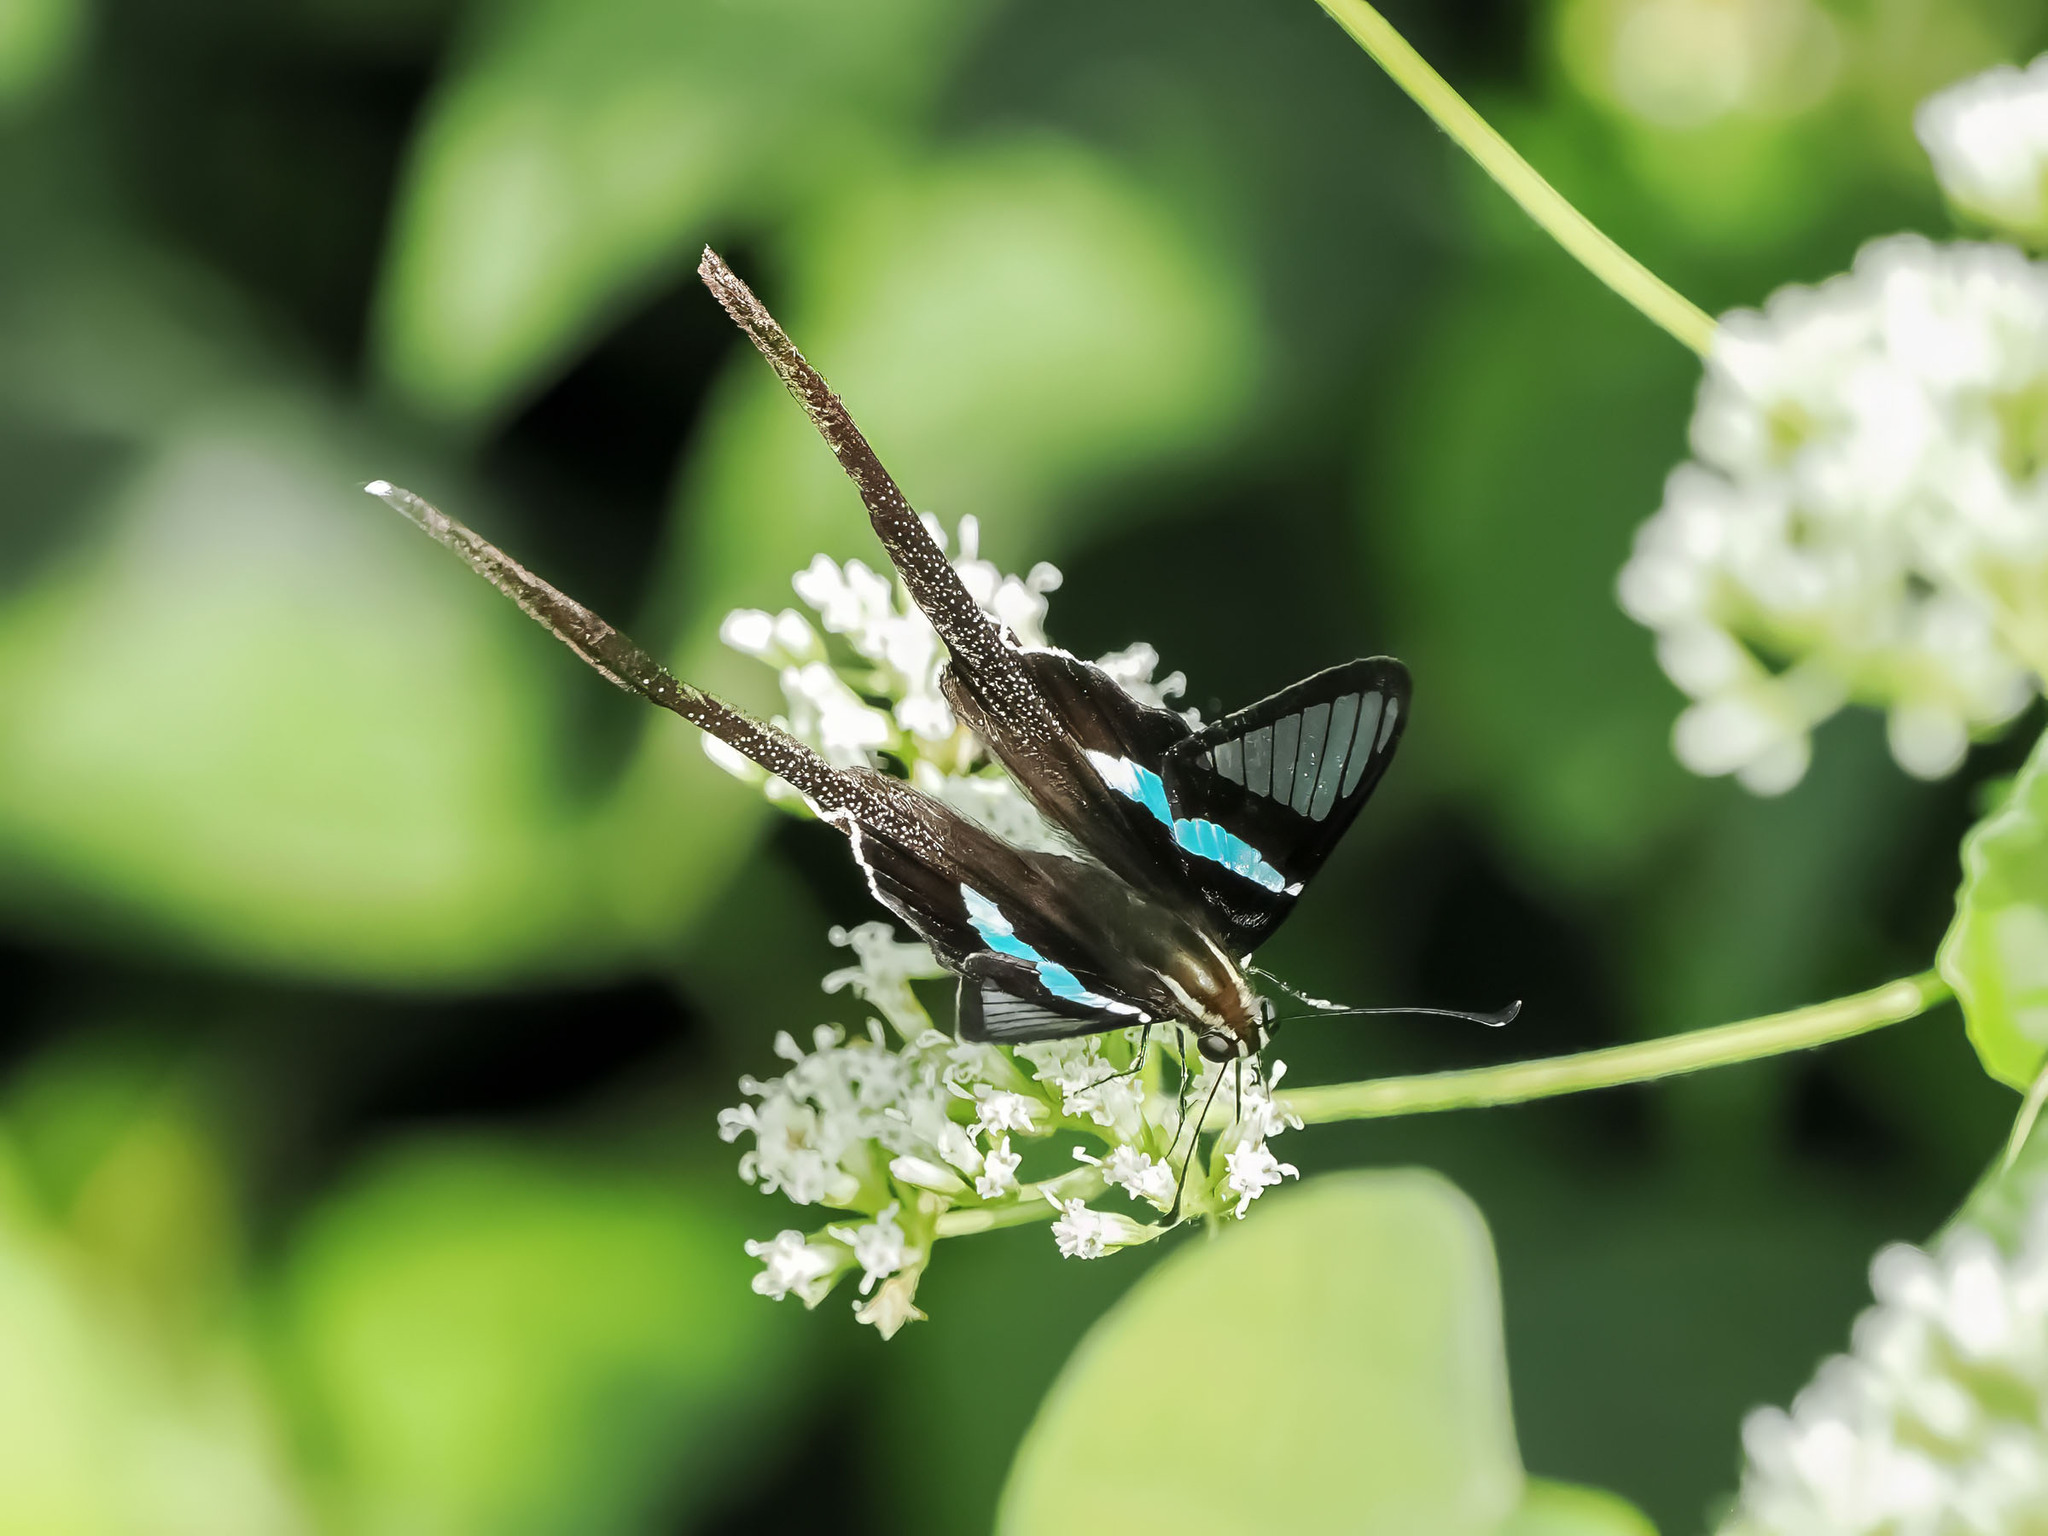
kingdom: Animalia
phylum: Arthropoda
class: Insecta
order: Lepidoptera
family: Papilionidae
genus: Lamproptera
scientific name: Lamproptera meges
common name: Green dragontail
